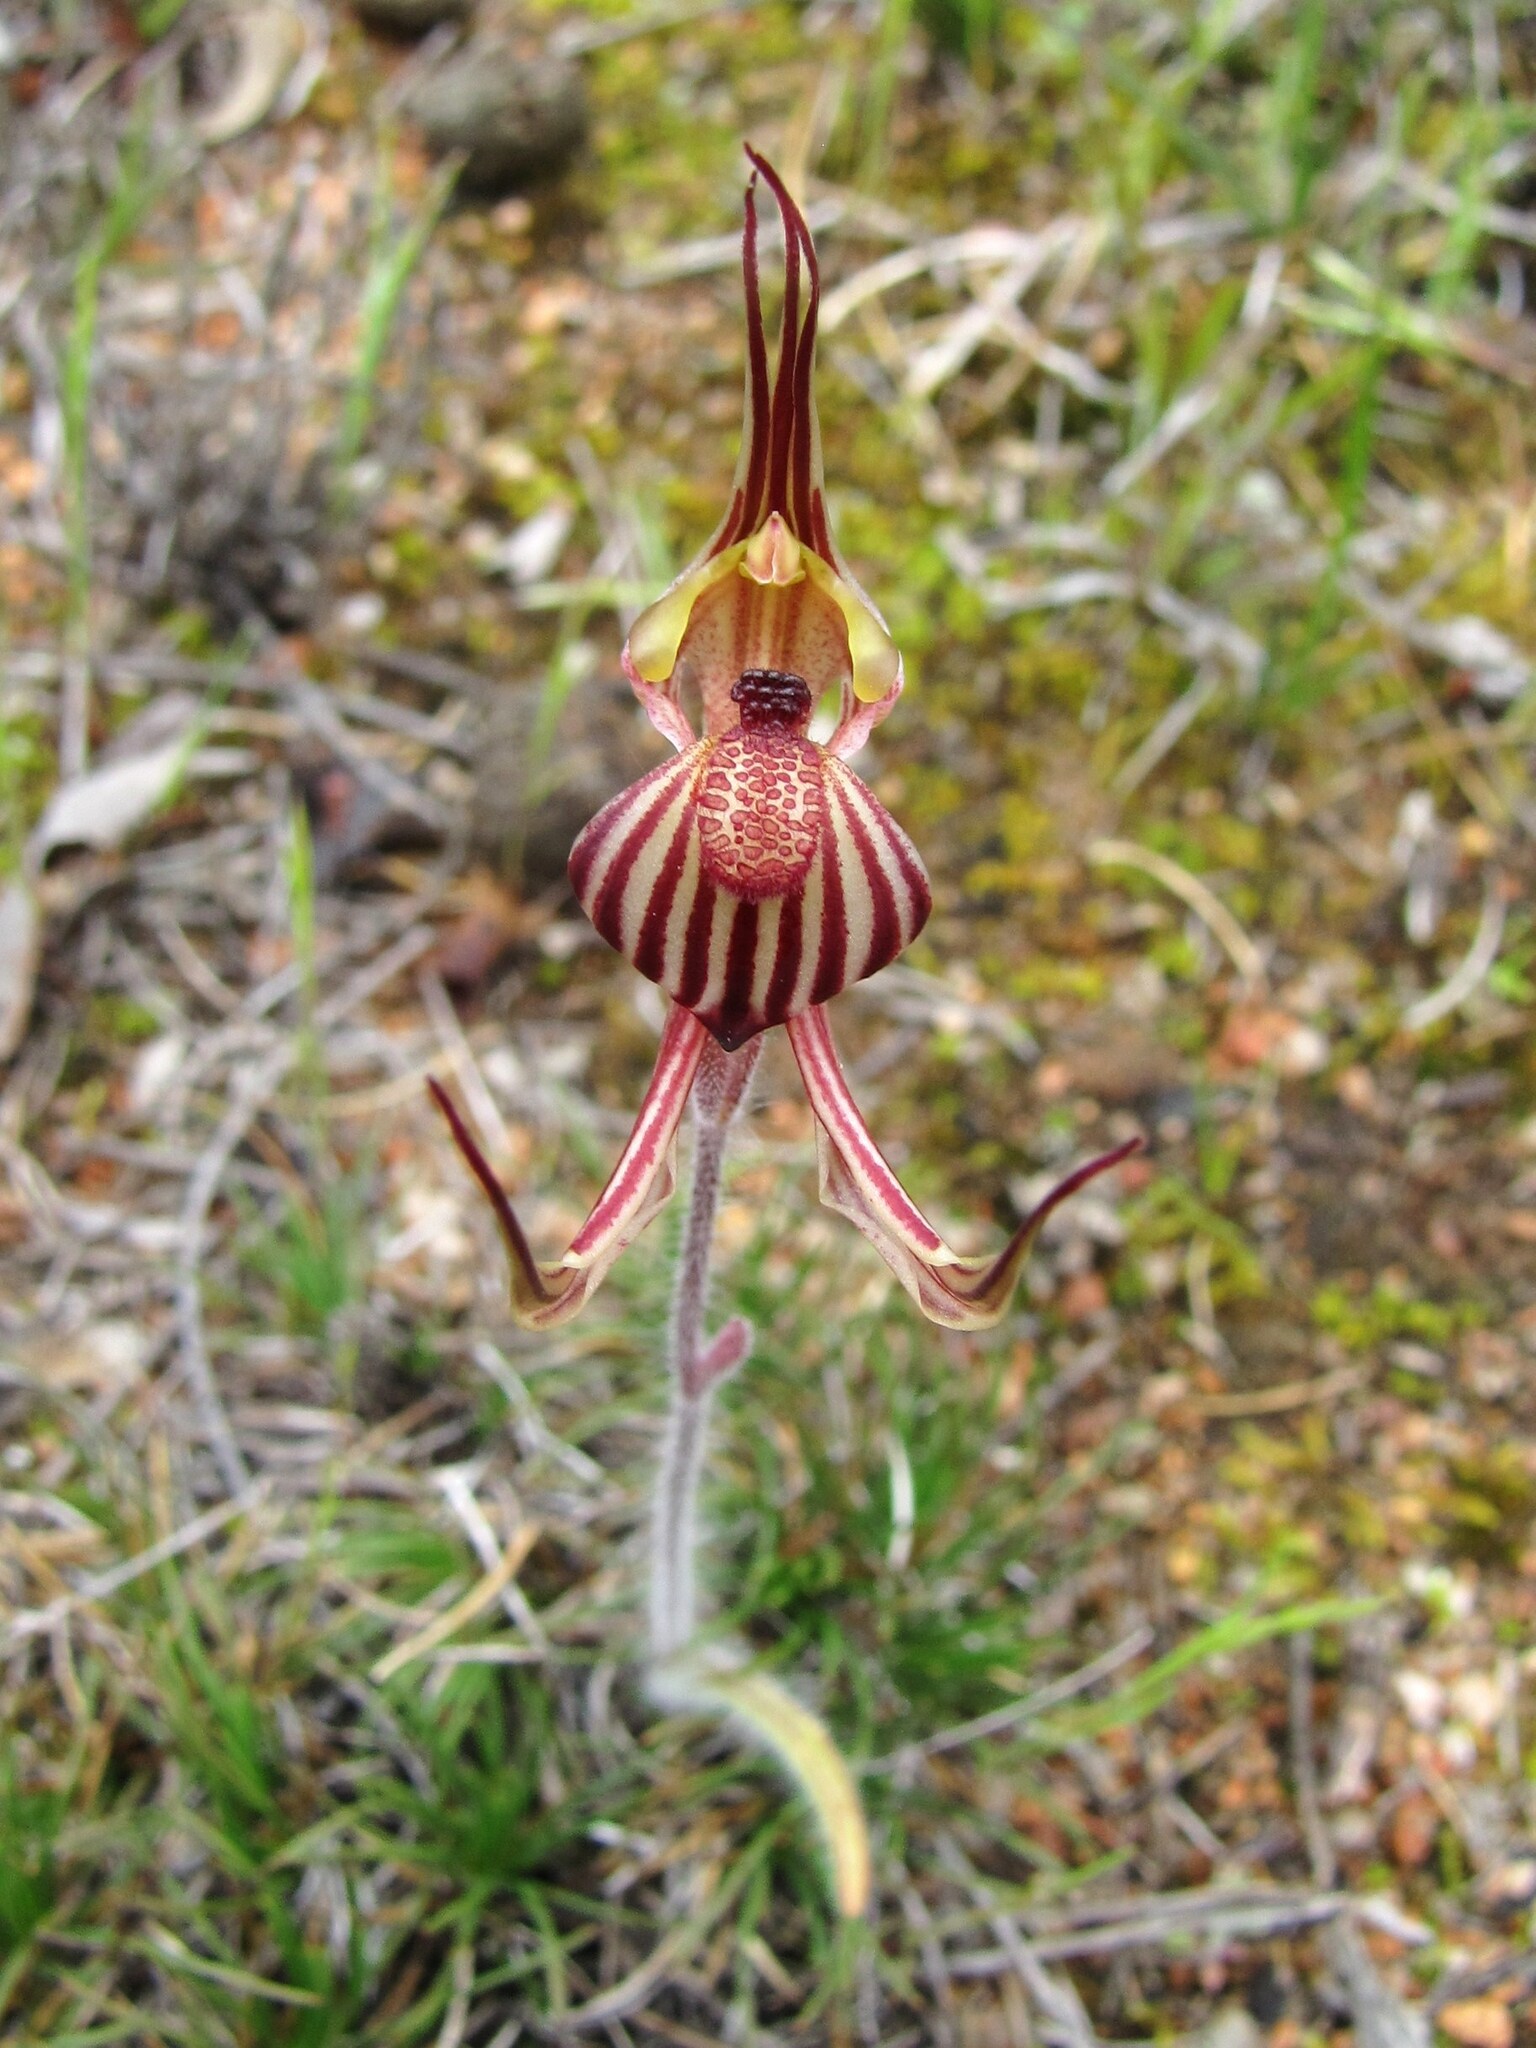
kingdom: Plantae
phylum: Tracheophyta
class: Liliopsida
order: Asparagales
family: Orchidaceae
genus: Caladenia
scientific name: Caladenia multiclavia
